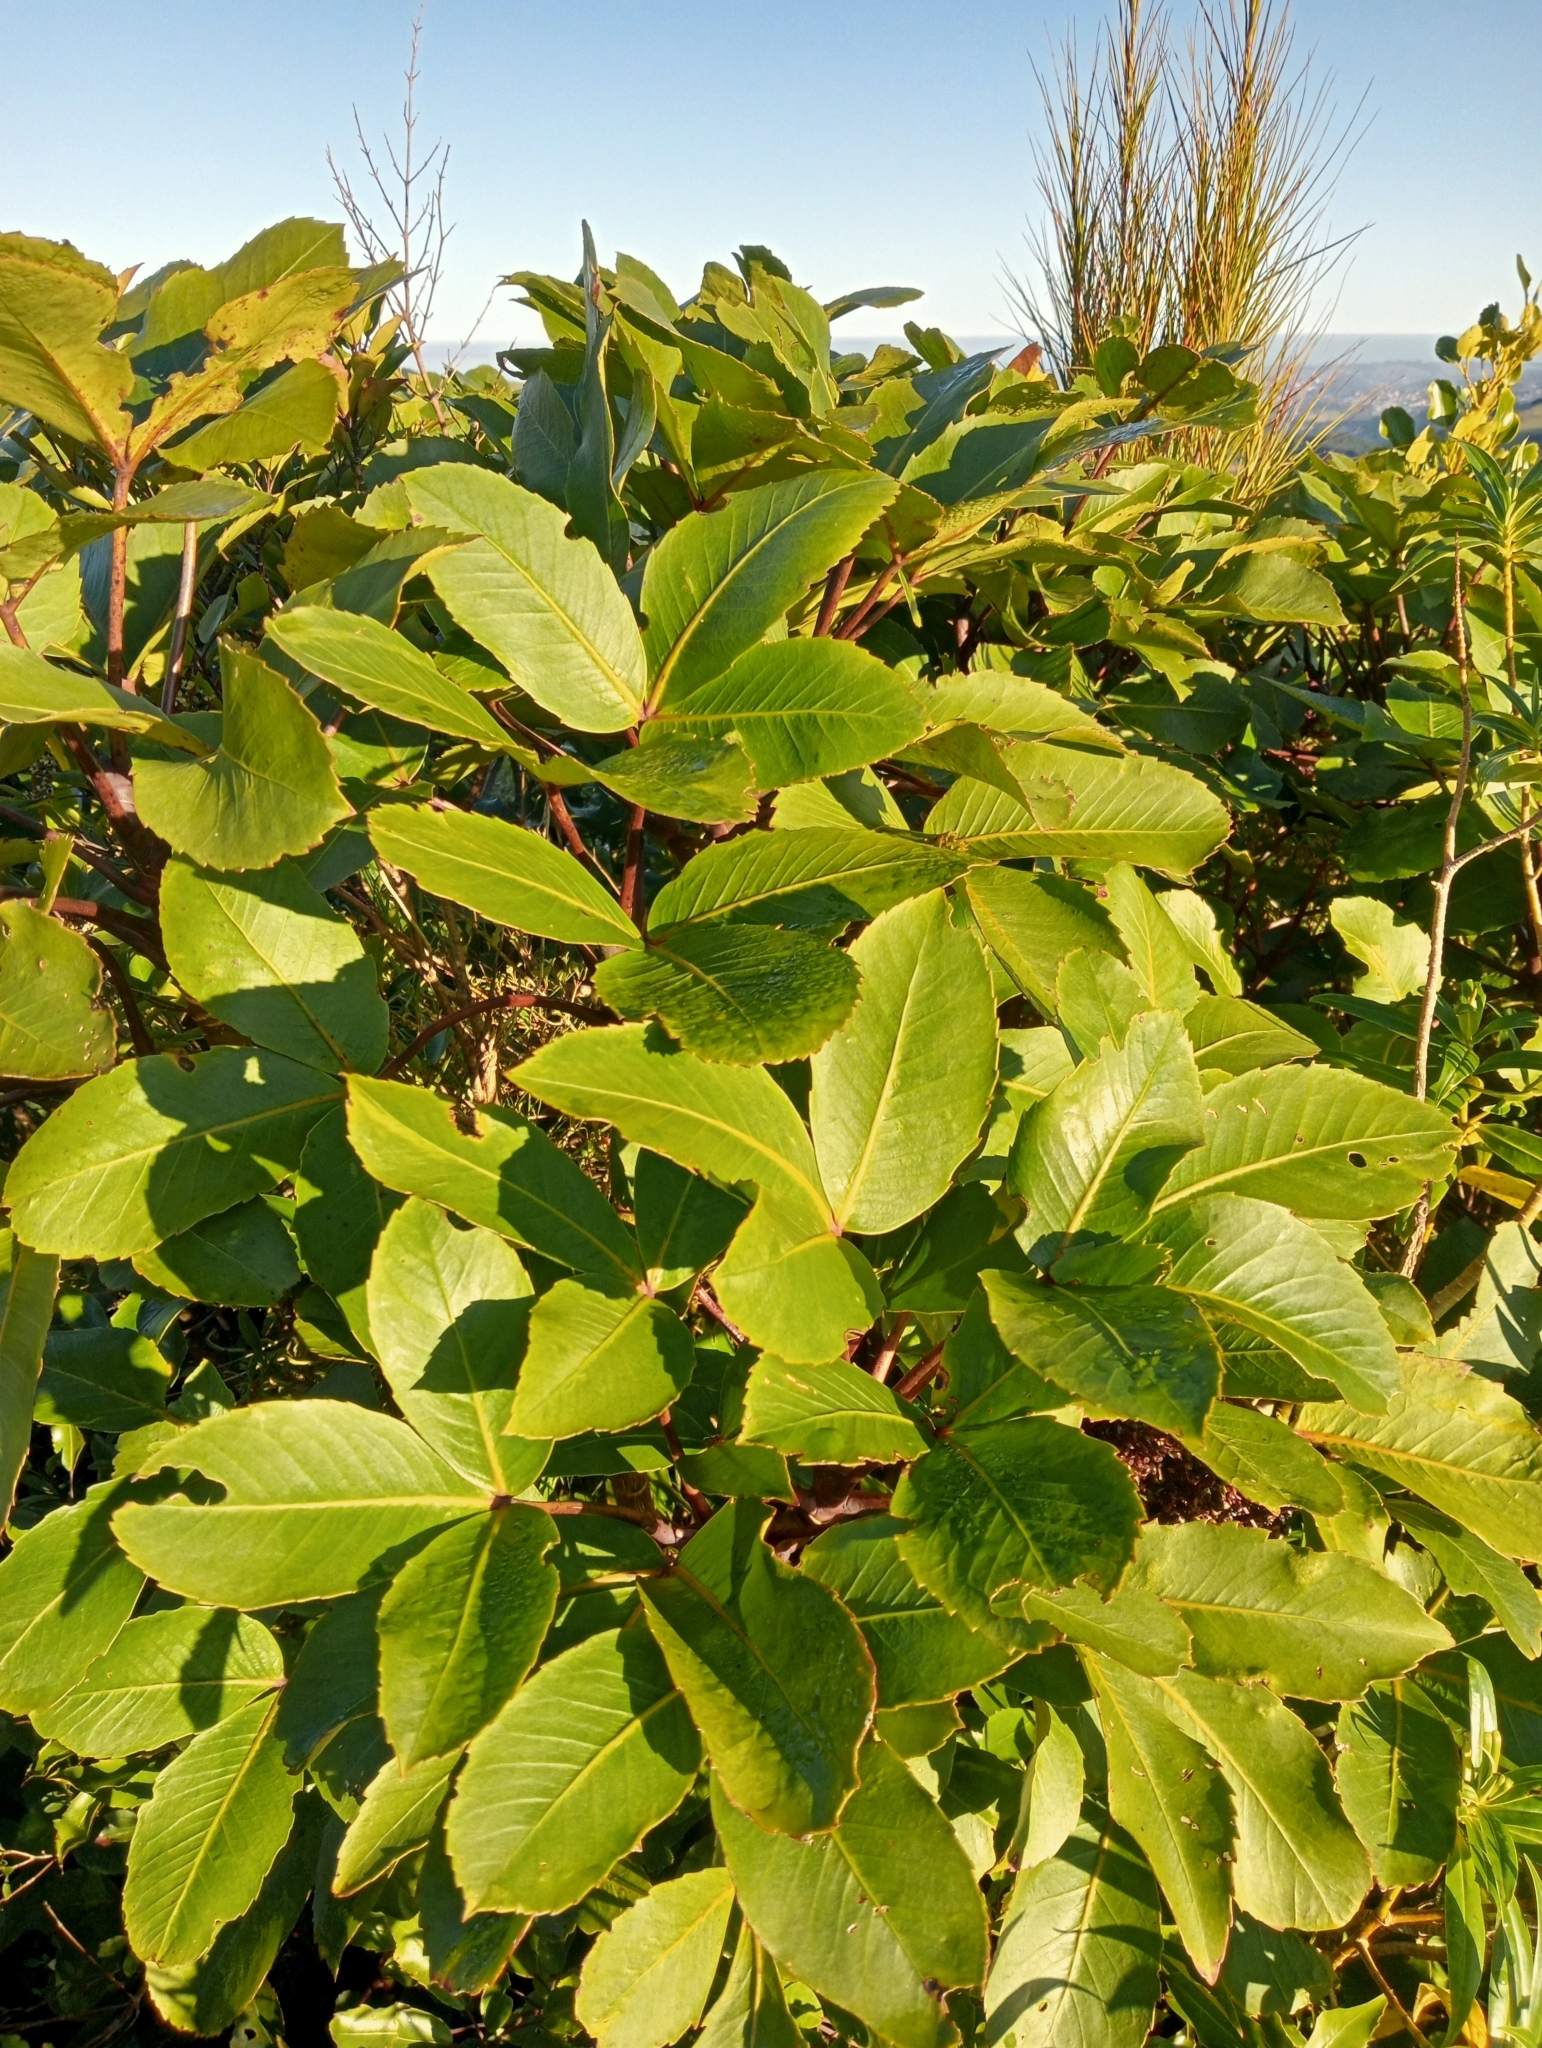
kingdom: Plantae
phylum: Tracheophyta
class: Magnoliopsida
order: Apiales
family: Araliaceae
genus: Neopanax
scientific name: Neopanax colensoi
